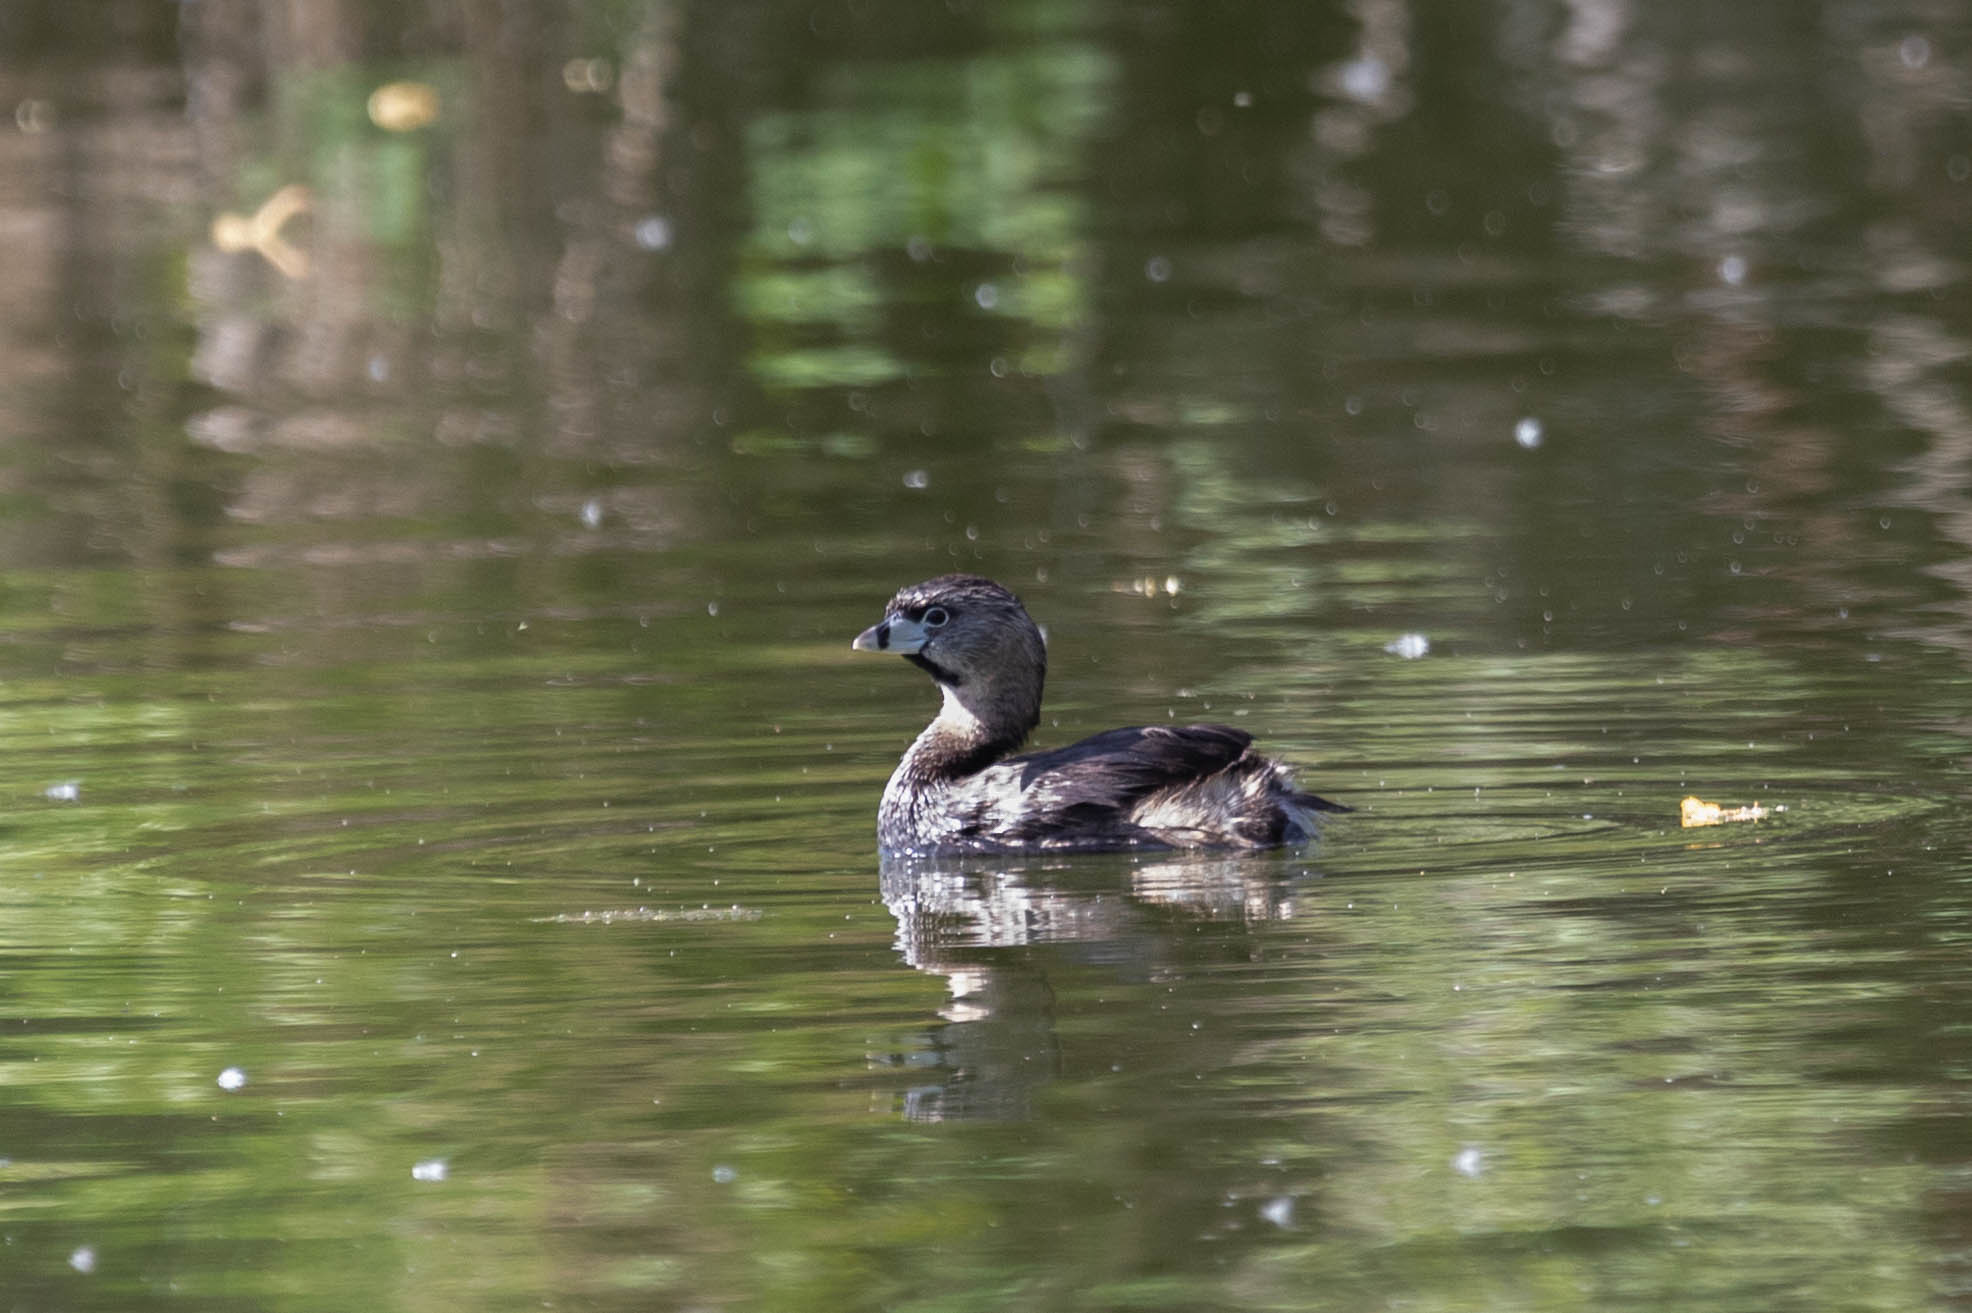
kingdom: Animalia
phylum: Chordata
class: Aves
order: Podicipediformes
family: Podicipedidae
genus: Podilymbus
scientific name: Podilymbus podiceps
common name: Pied-billed grebe
